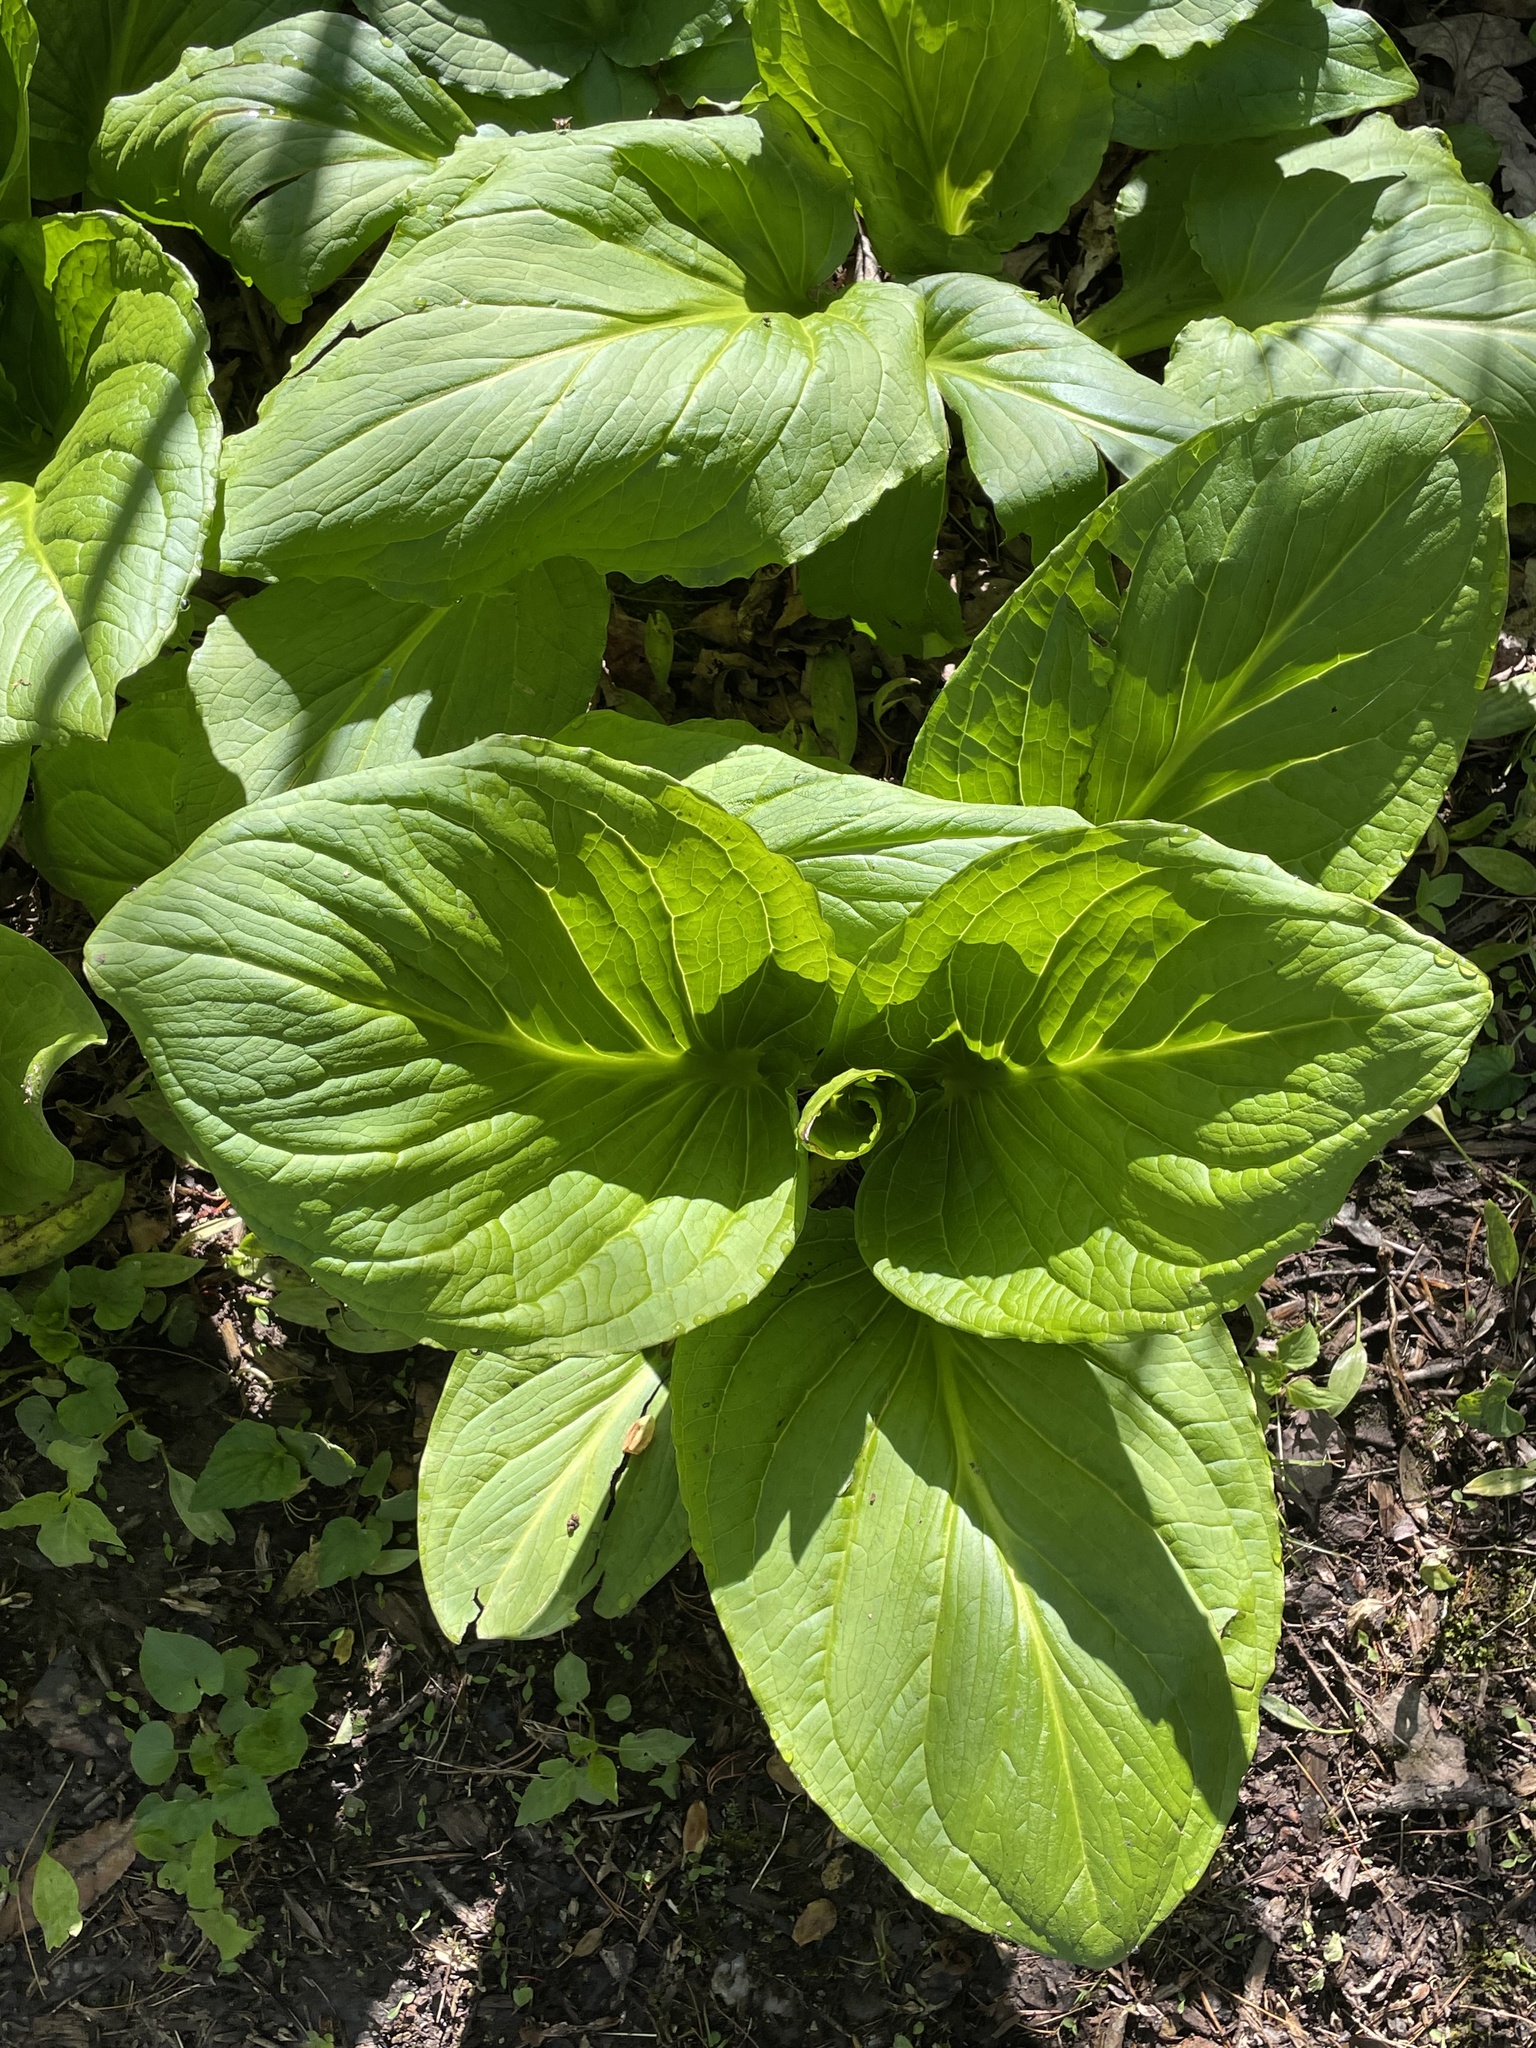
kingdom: Plantae
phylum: Tracheophyta
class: Liliopsida
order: Alismatales
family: Araceae
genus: Symplocarpus
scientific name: Symplocarpus foetidus
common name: Eastern skunk cabbage
